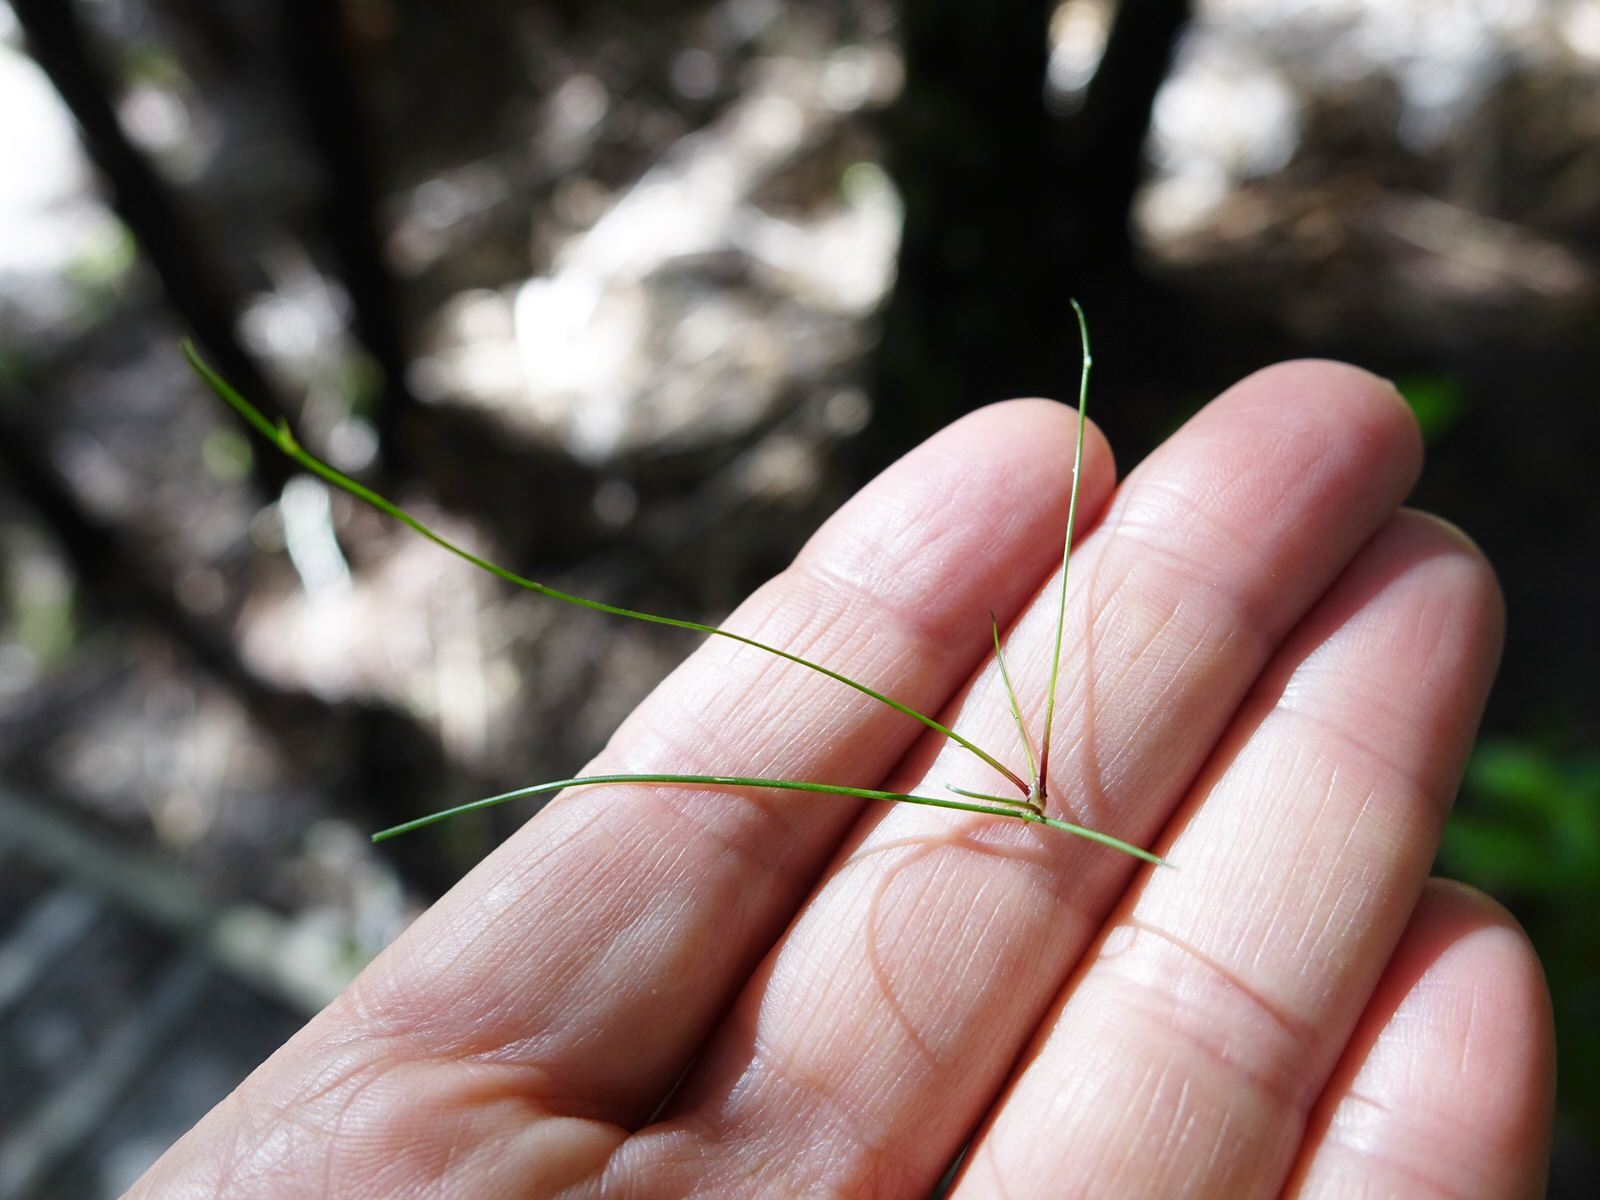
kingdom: Plantae
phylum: Tracheophyta
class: Liliopsida
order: Poales
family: Cyperaceae
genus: Isolepis
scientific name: Isolepis reticularis
